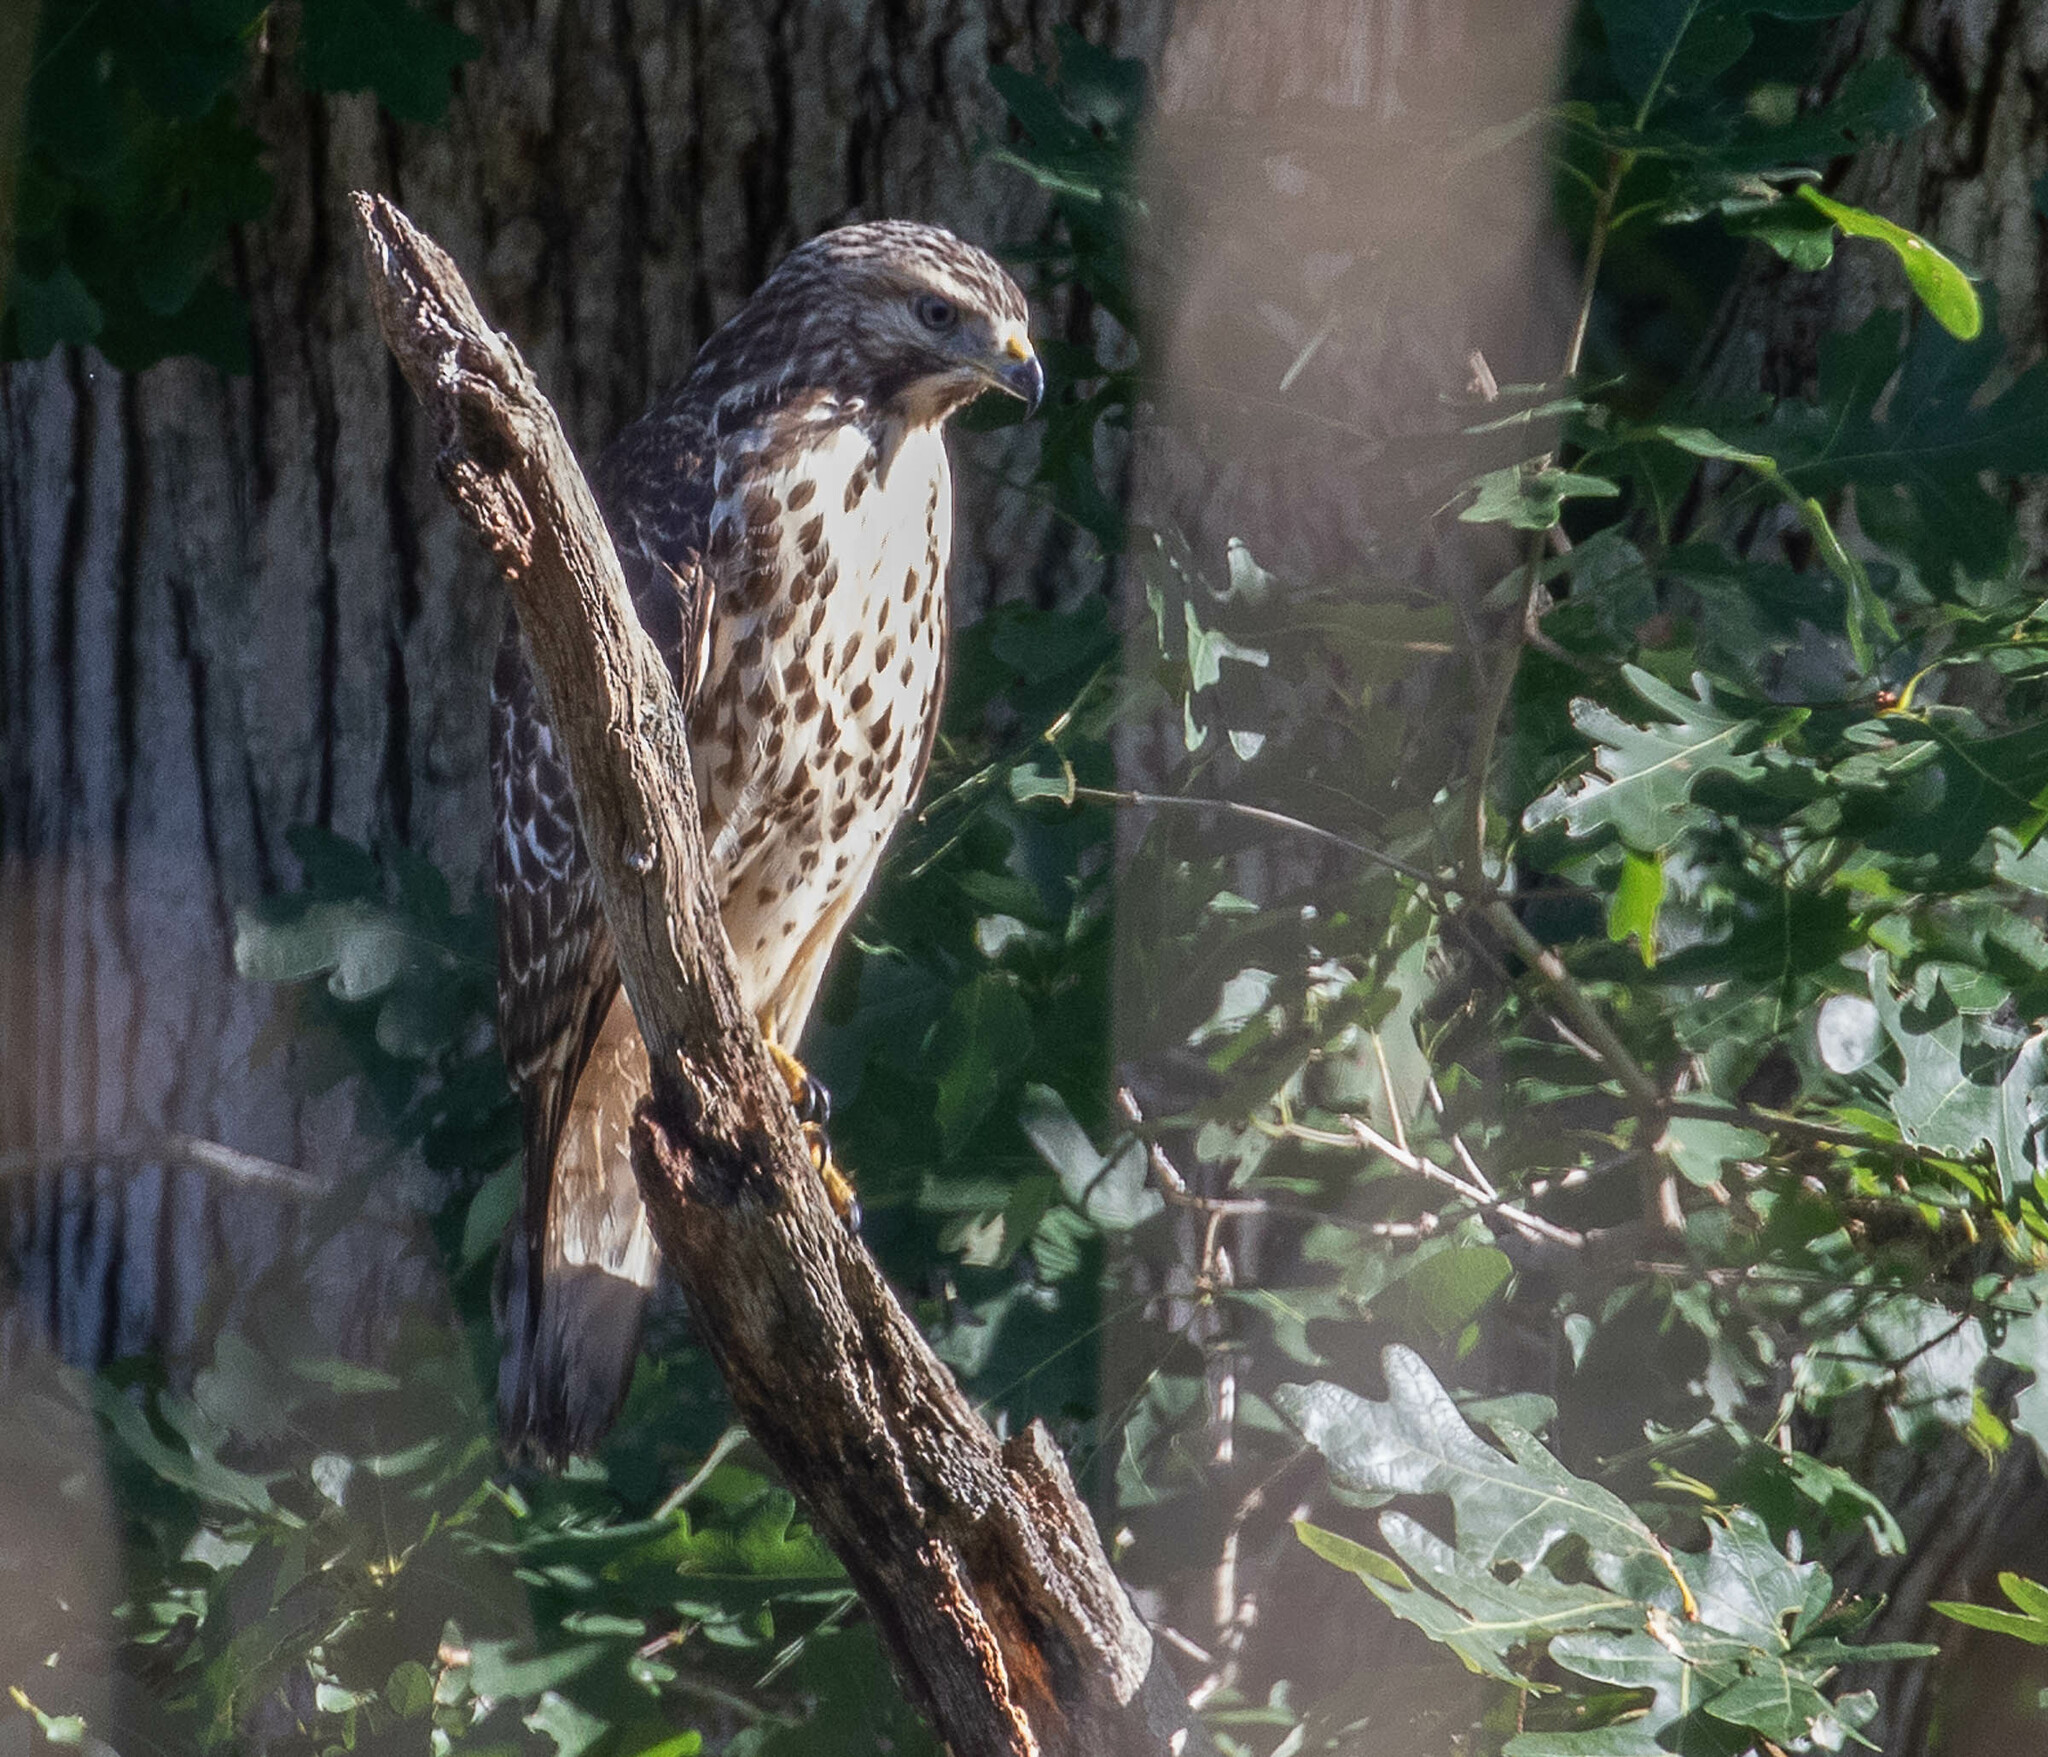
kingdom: Animalia
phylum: Chordata
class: Aves
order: Accipitriformes
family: Accipitridae
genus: Buteo
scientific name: Buteo lineatus
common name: Red-shouldered hawk
